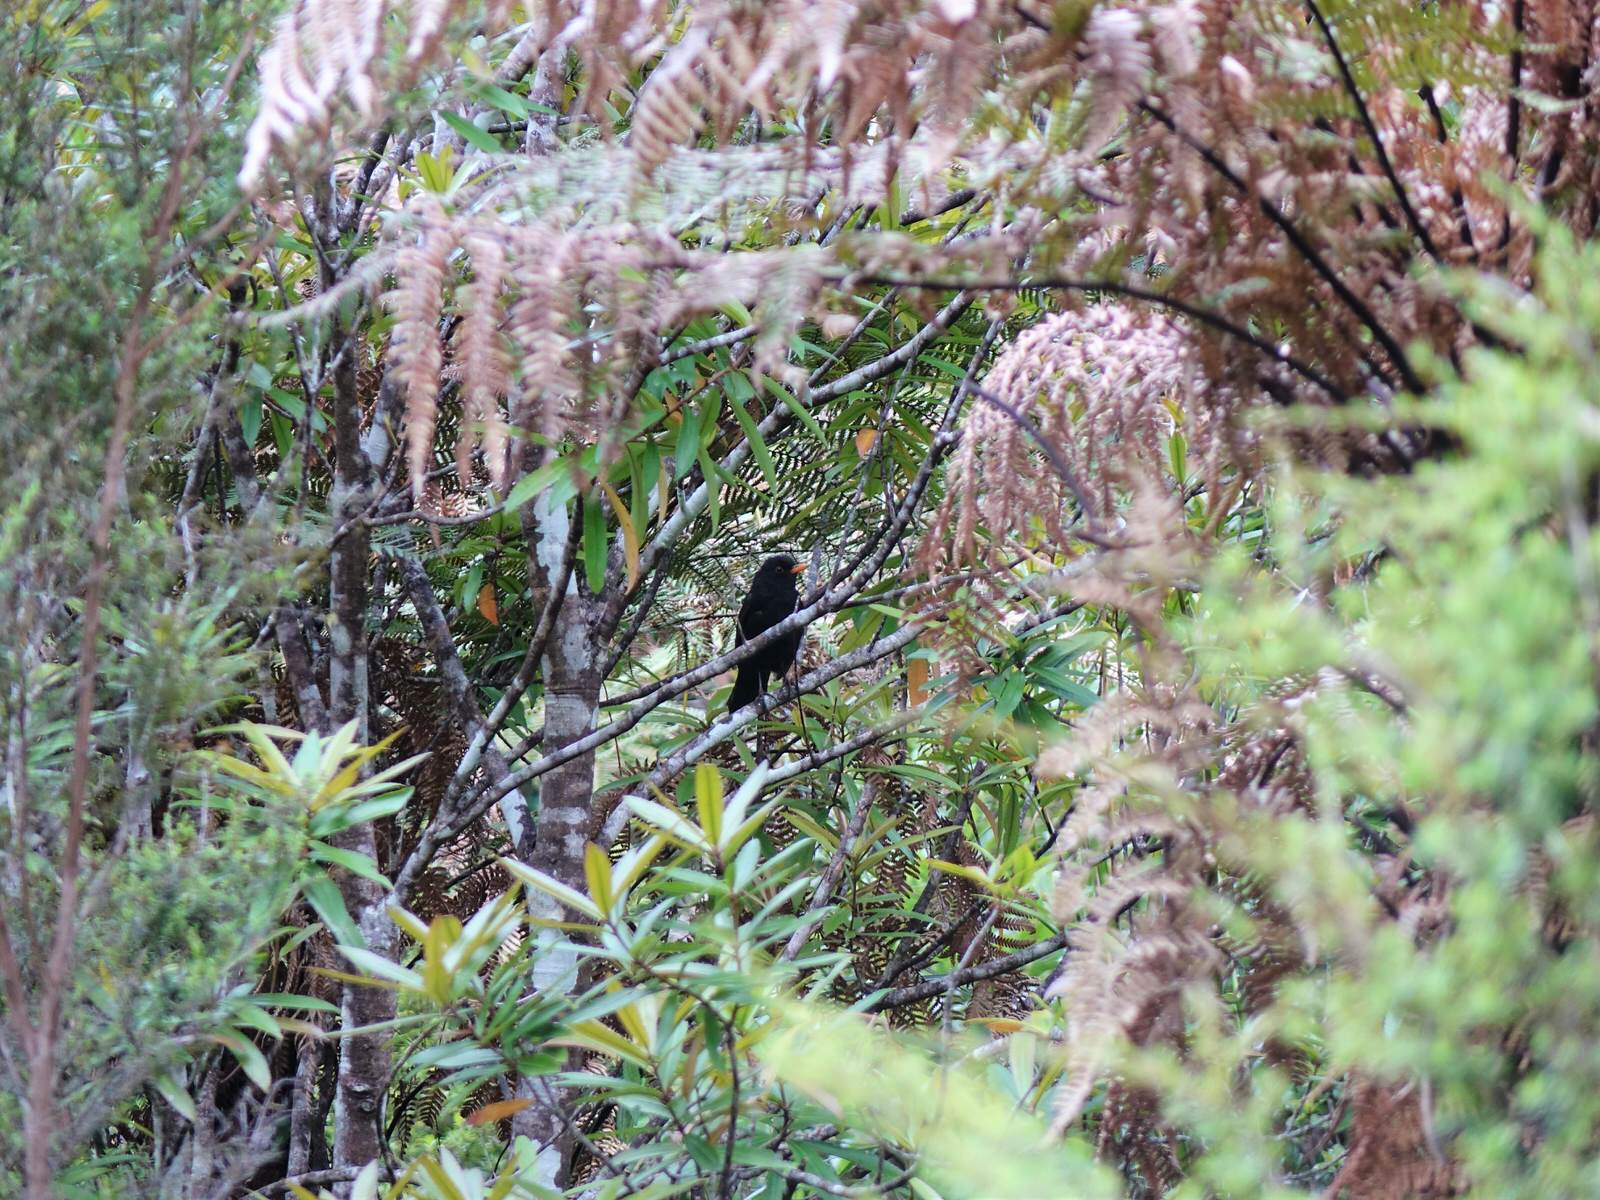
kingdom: Animalia
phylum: Chordata
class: Aves
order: Passeriformes
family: Turdidae
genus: Turdus
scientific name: Turdus merula
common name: Common blackbird
